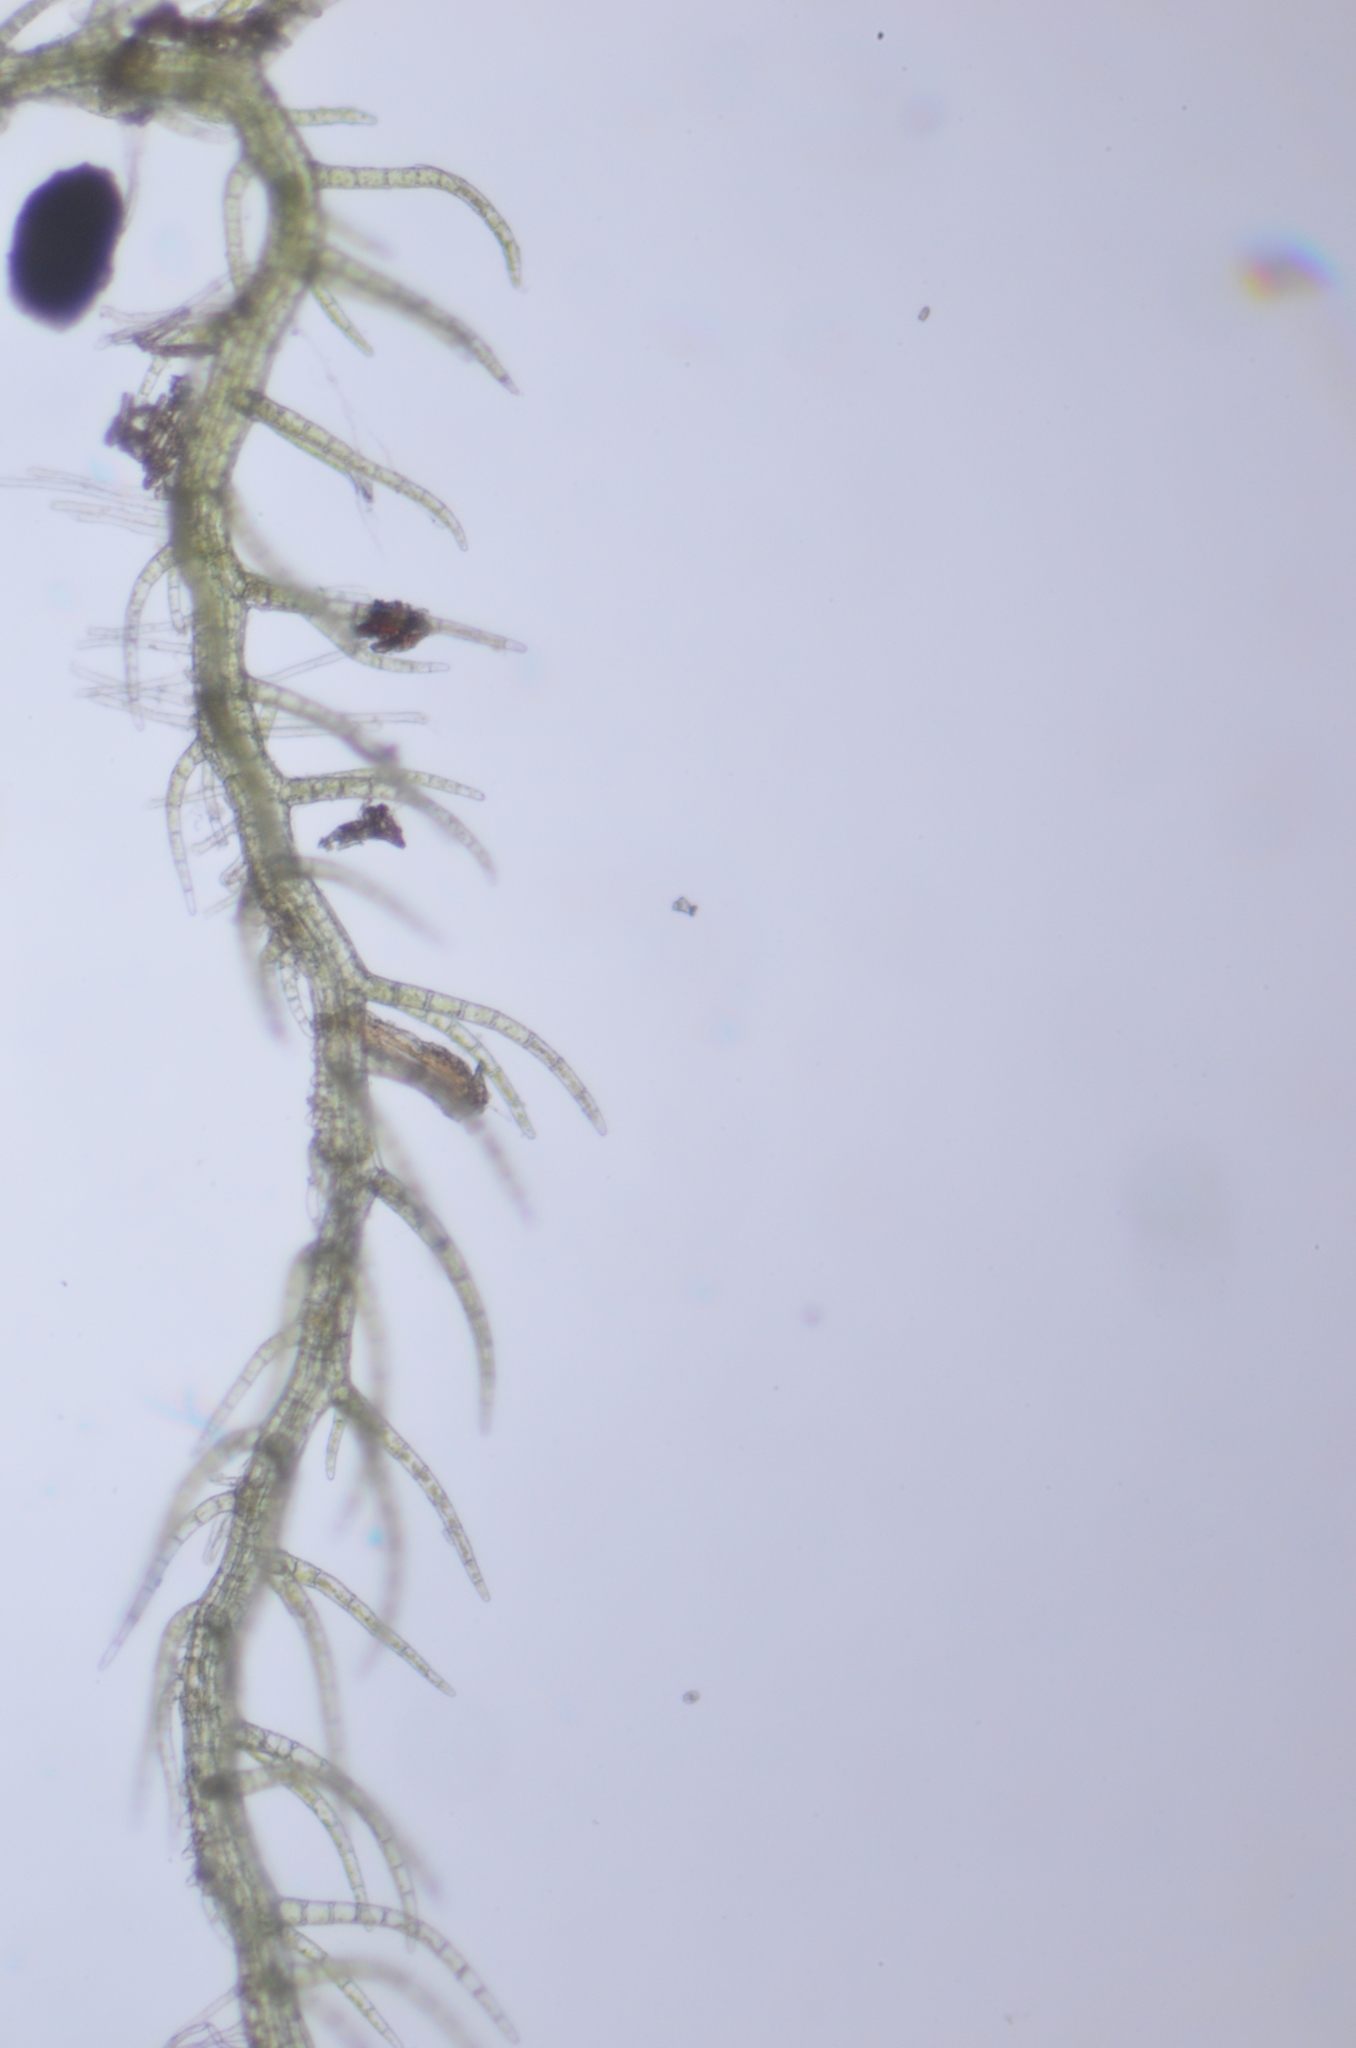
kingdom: Plantae
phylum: Marchantiophyta
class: Jungermanniopsida
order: Jungermanniales
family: Blepharostomataceae
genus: Blepharostoma
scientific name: Blepharostoma trichophyllum
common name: Hairy threadwort
